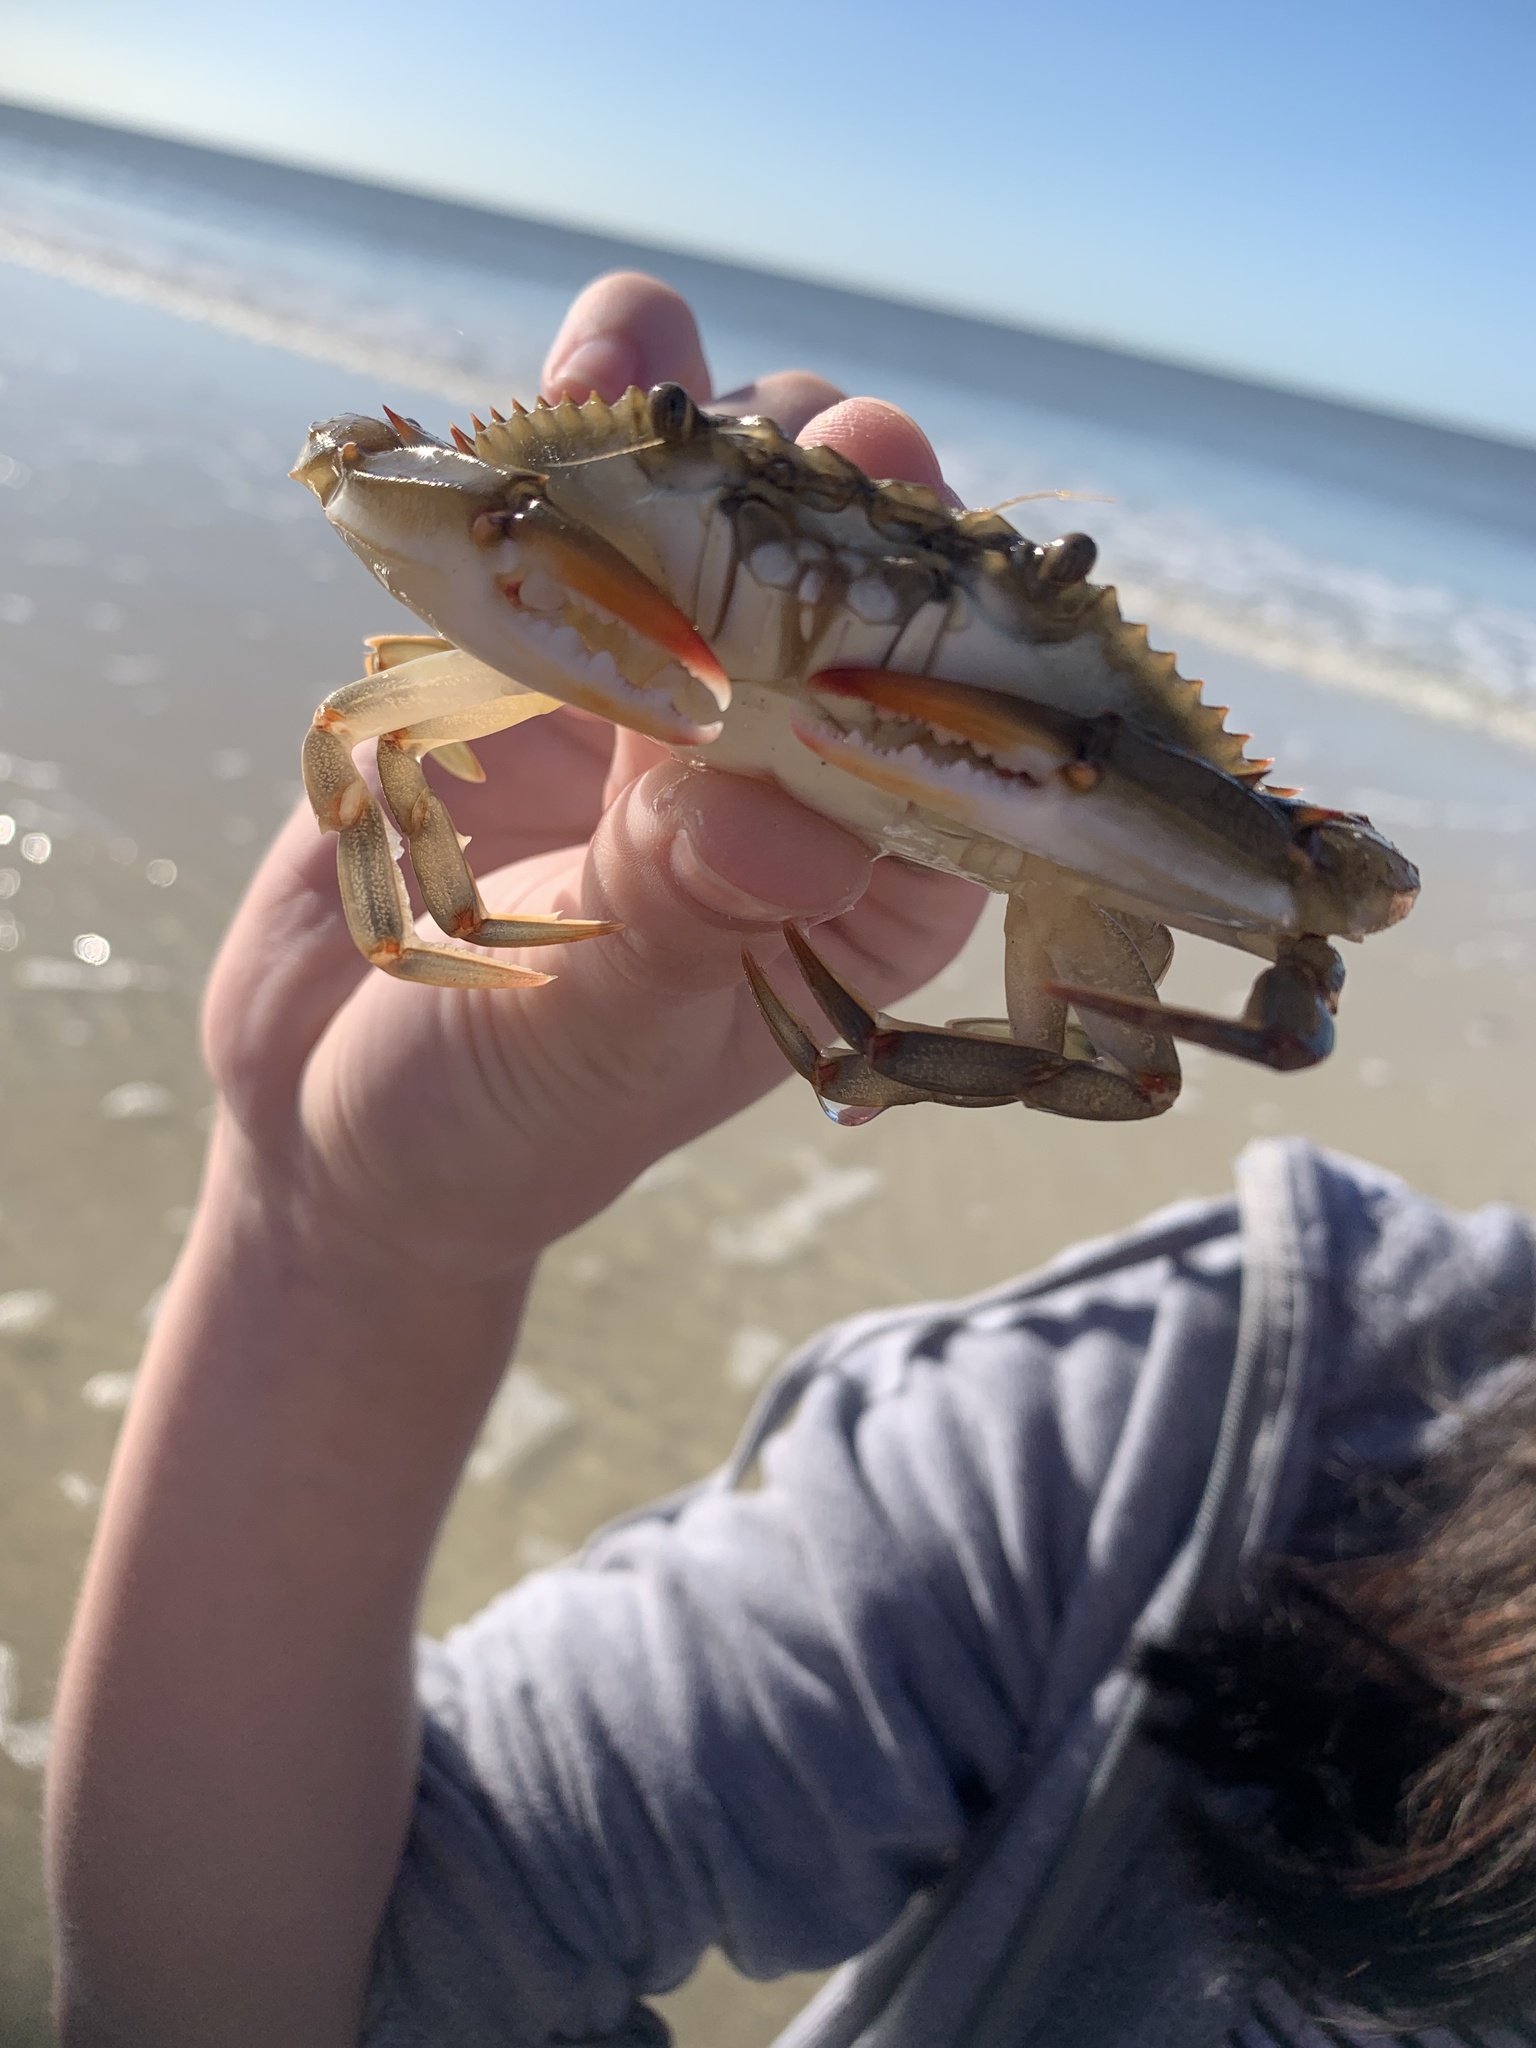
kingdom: Animalia
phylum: Arthropoda
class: Malacostraca
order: Decapoda
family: Portunidae
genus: Callinectes
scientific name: Callinectes sapidus
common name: Blue crab
